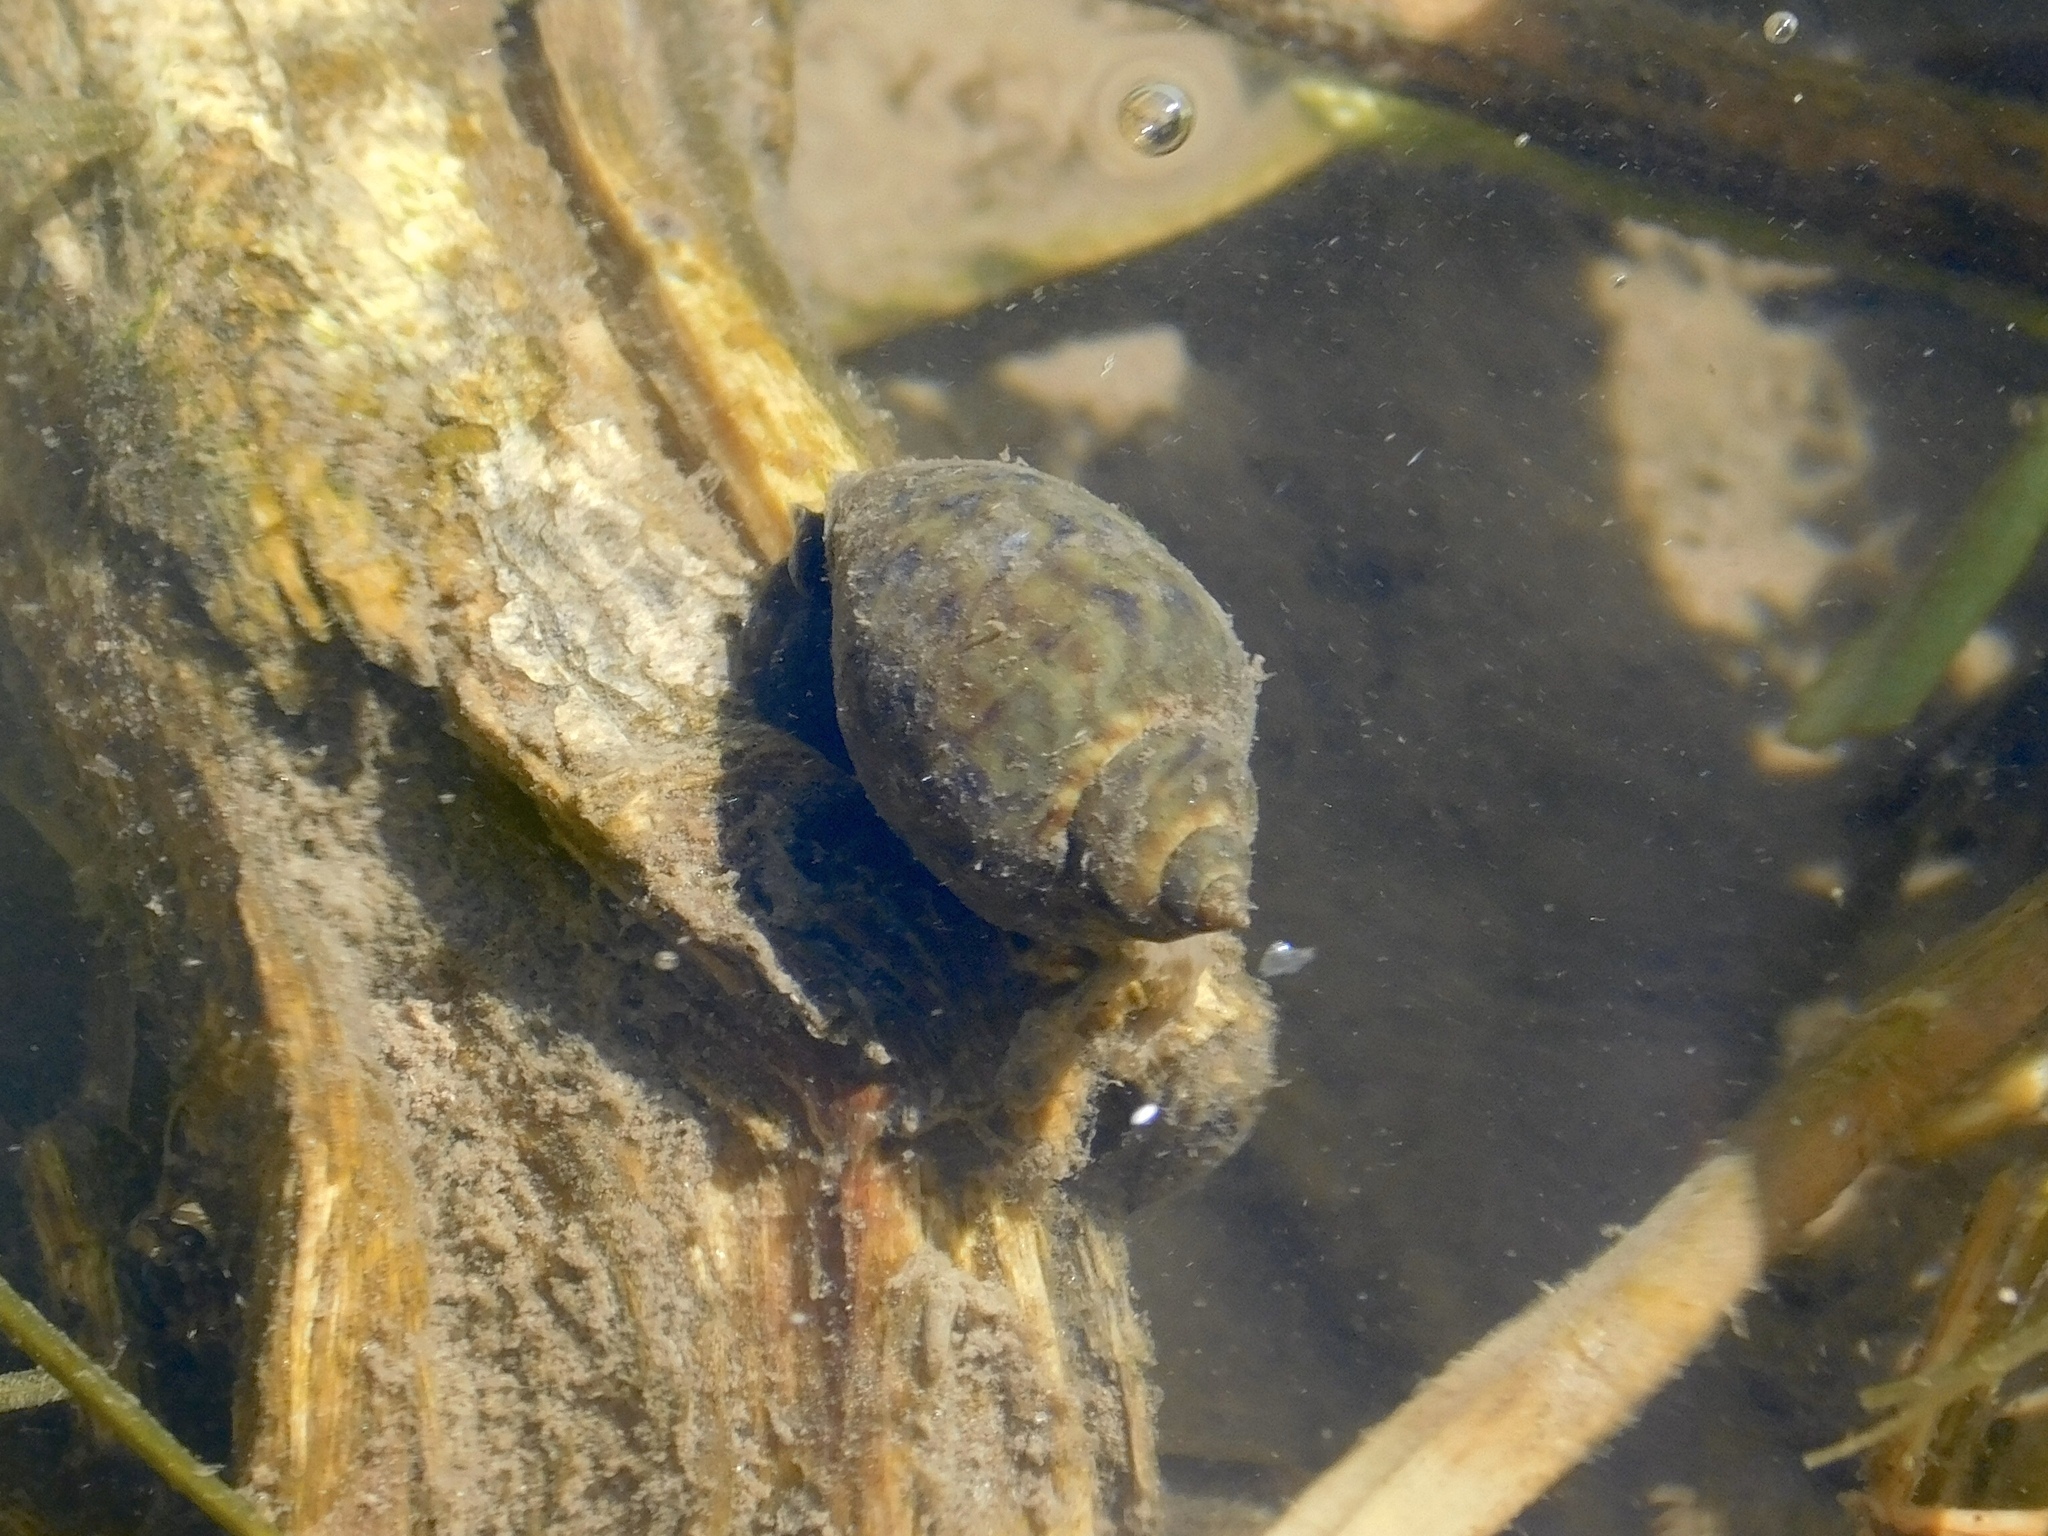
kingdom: Animalia
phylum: Mollusca
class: Gastropoda
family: Chilinidae
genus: Chilina
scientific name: Chilina parchappii
